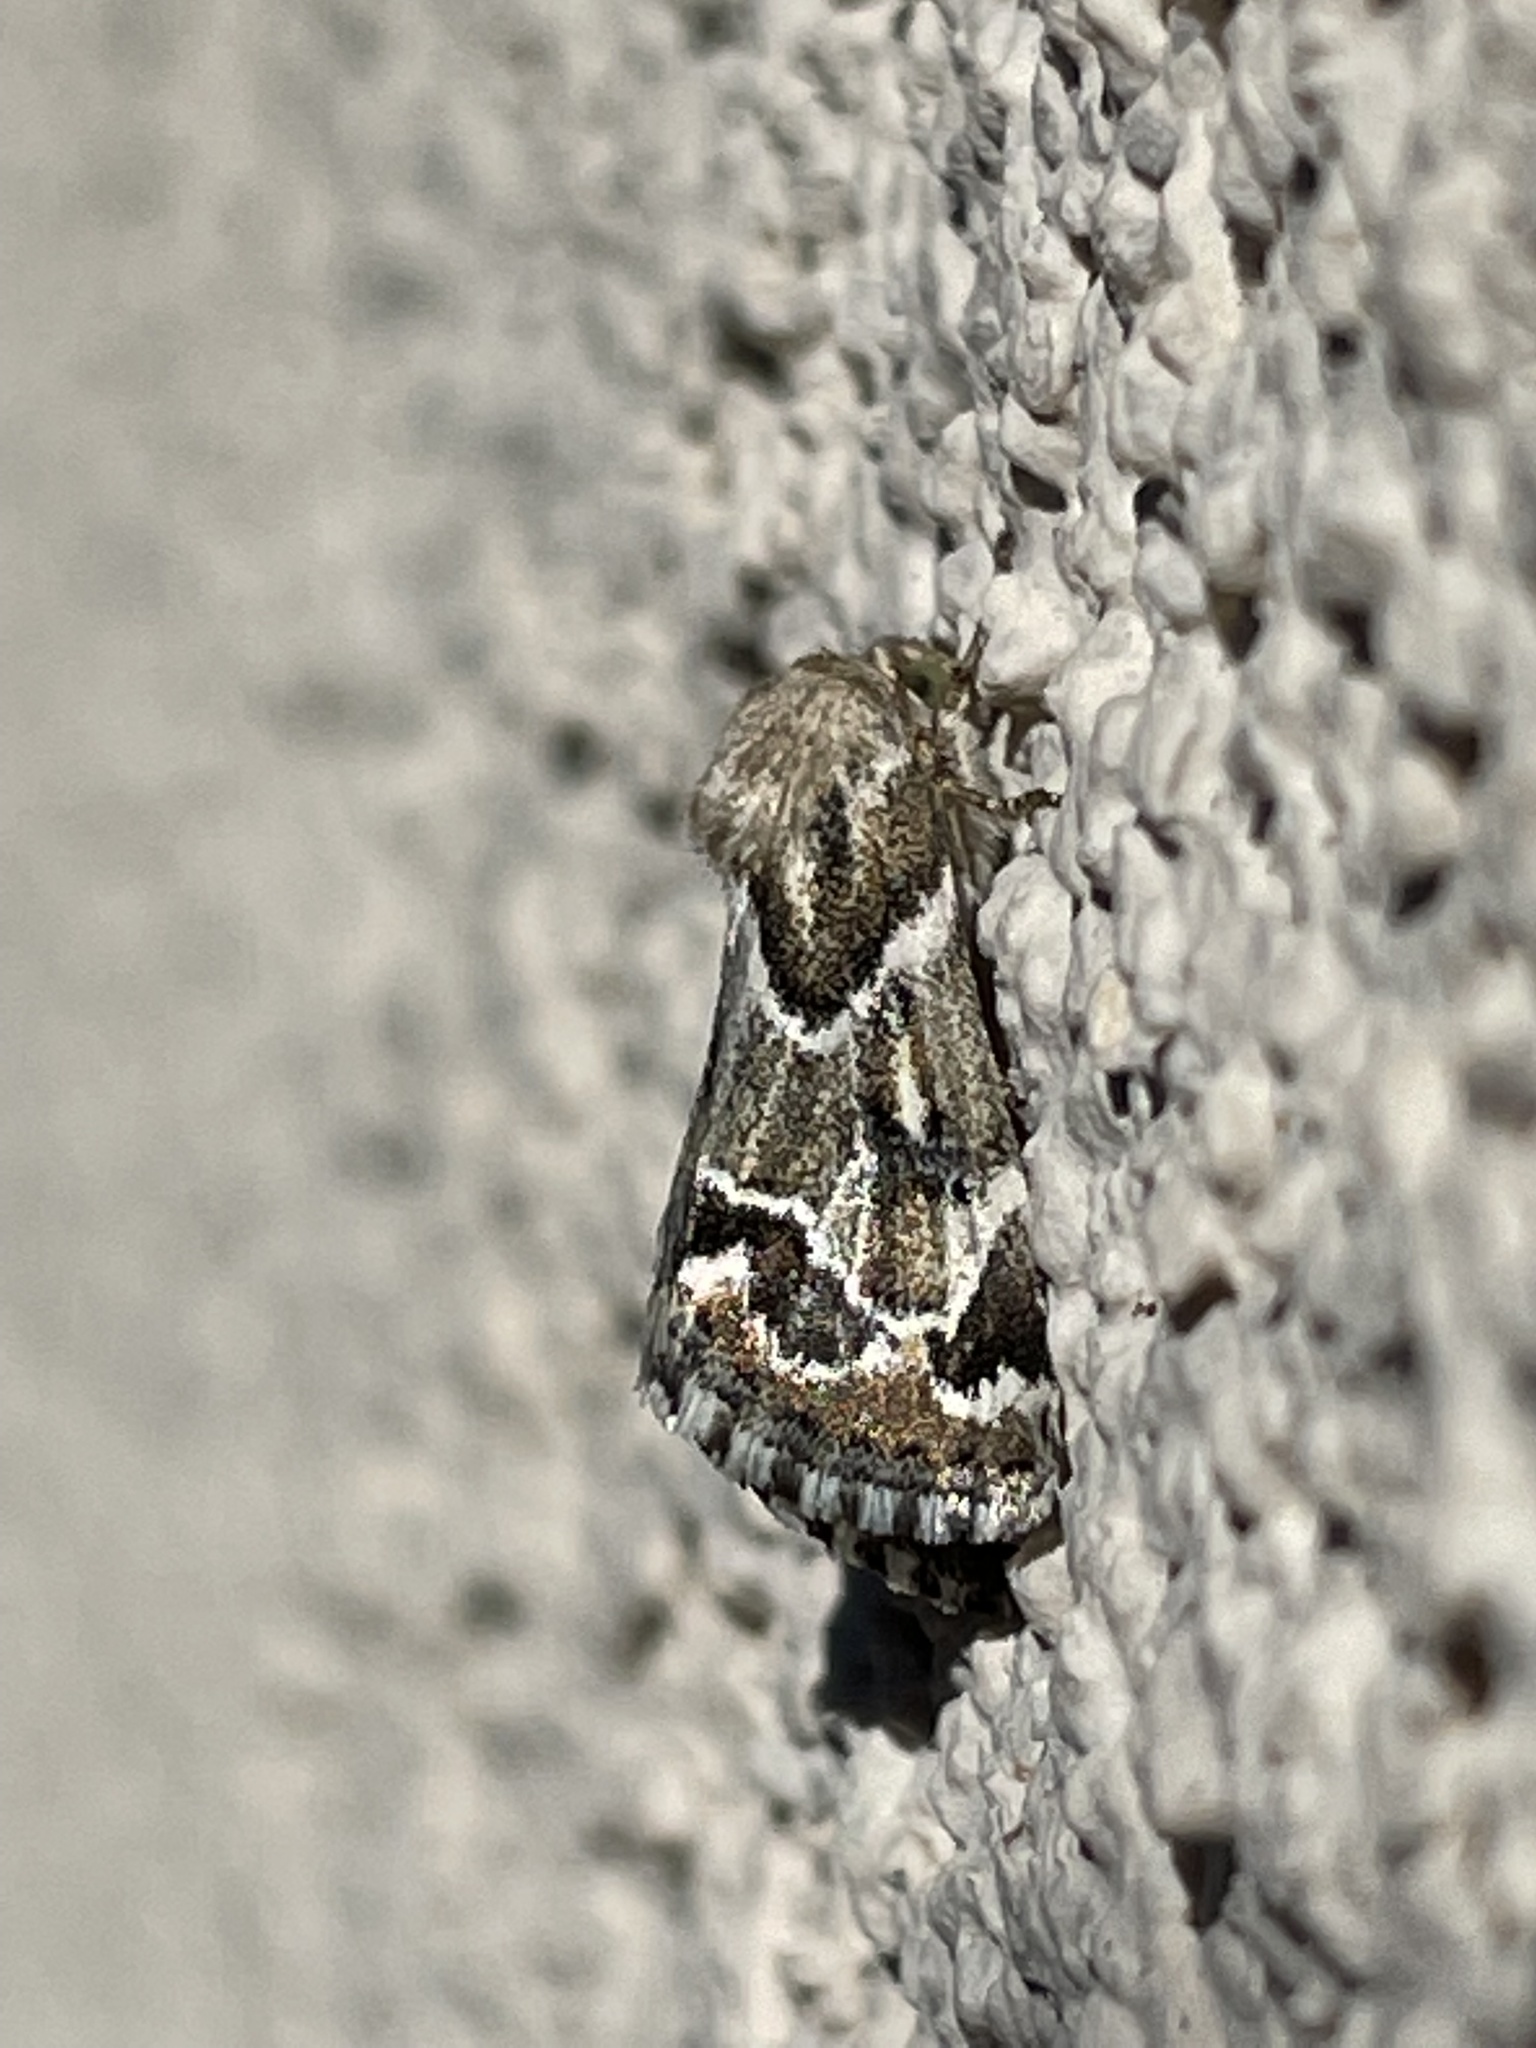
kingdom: Animalia
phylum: Arthropoda
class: Insecta
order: Lepidoptera
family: Noctuidae
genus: Schinia
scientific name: Schinia acutilinea
